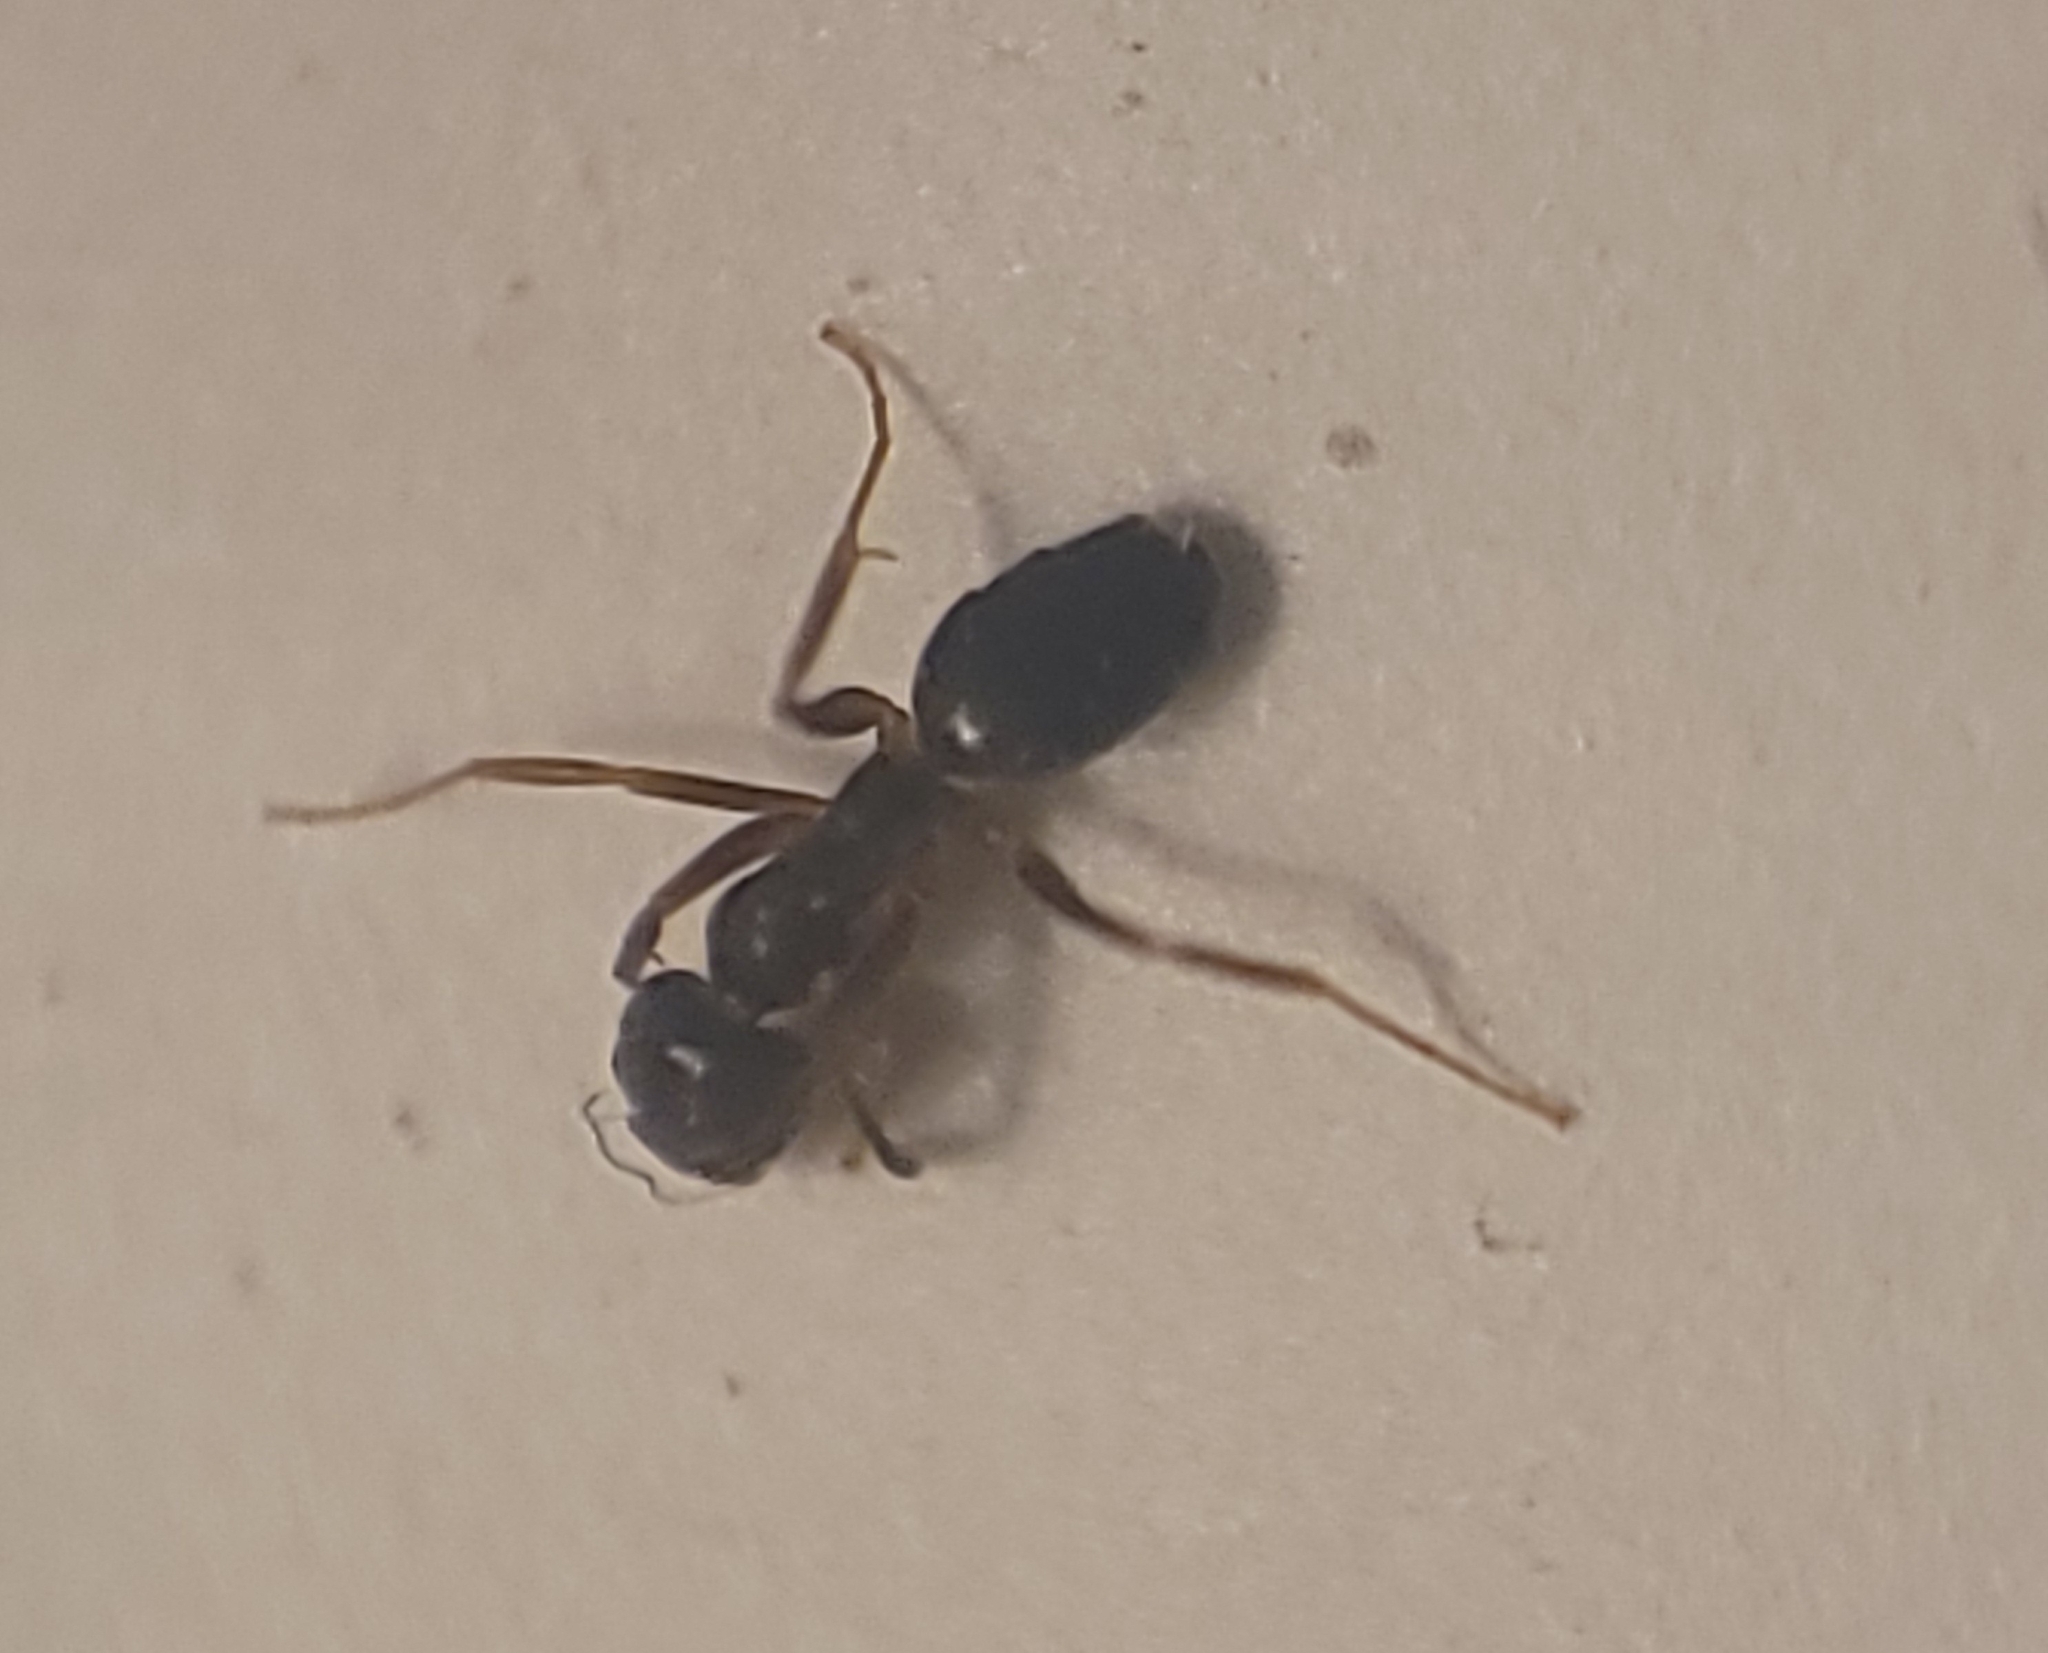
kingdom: Animalia
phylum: Arthropoda
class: Insecta
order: Hymenoptera
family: Formicidae
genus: Tapinoma
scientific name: Tapinoma sessile
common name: Odorous house ant
